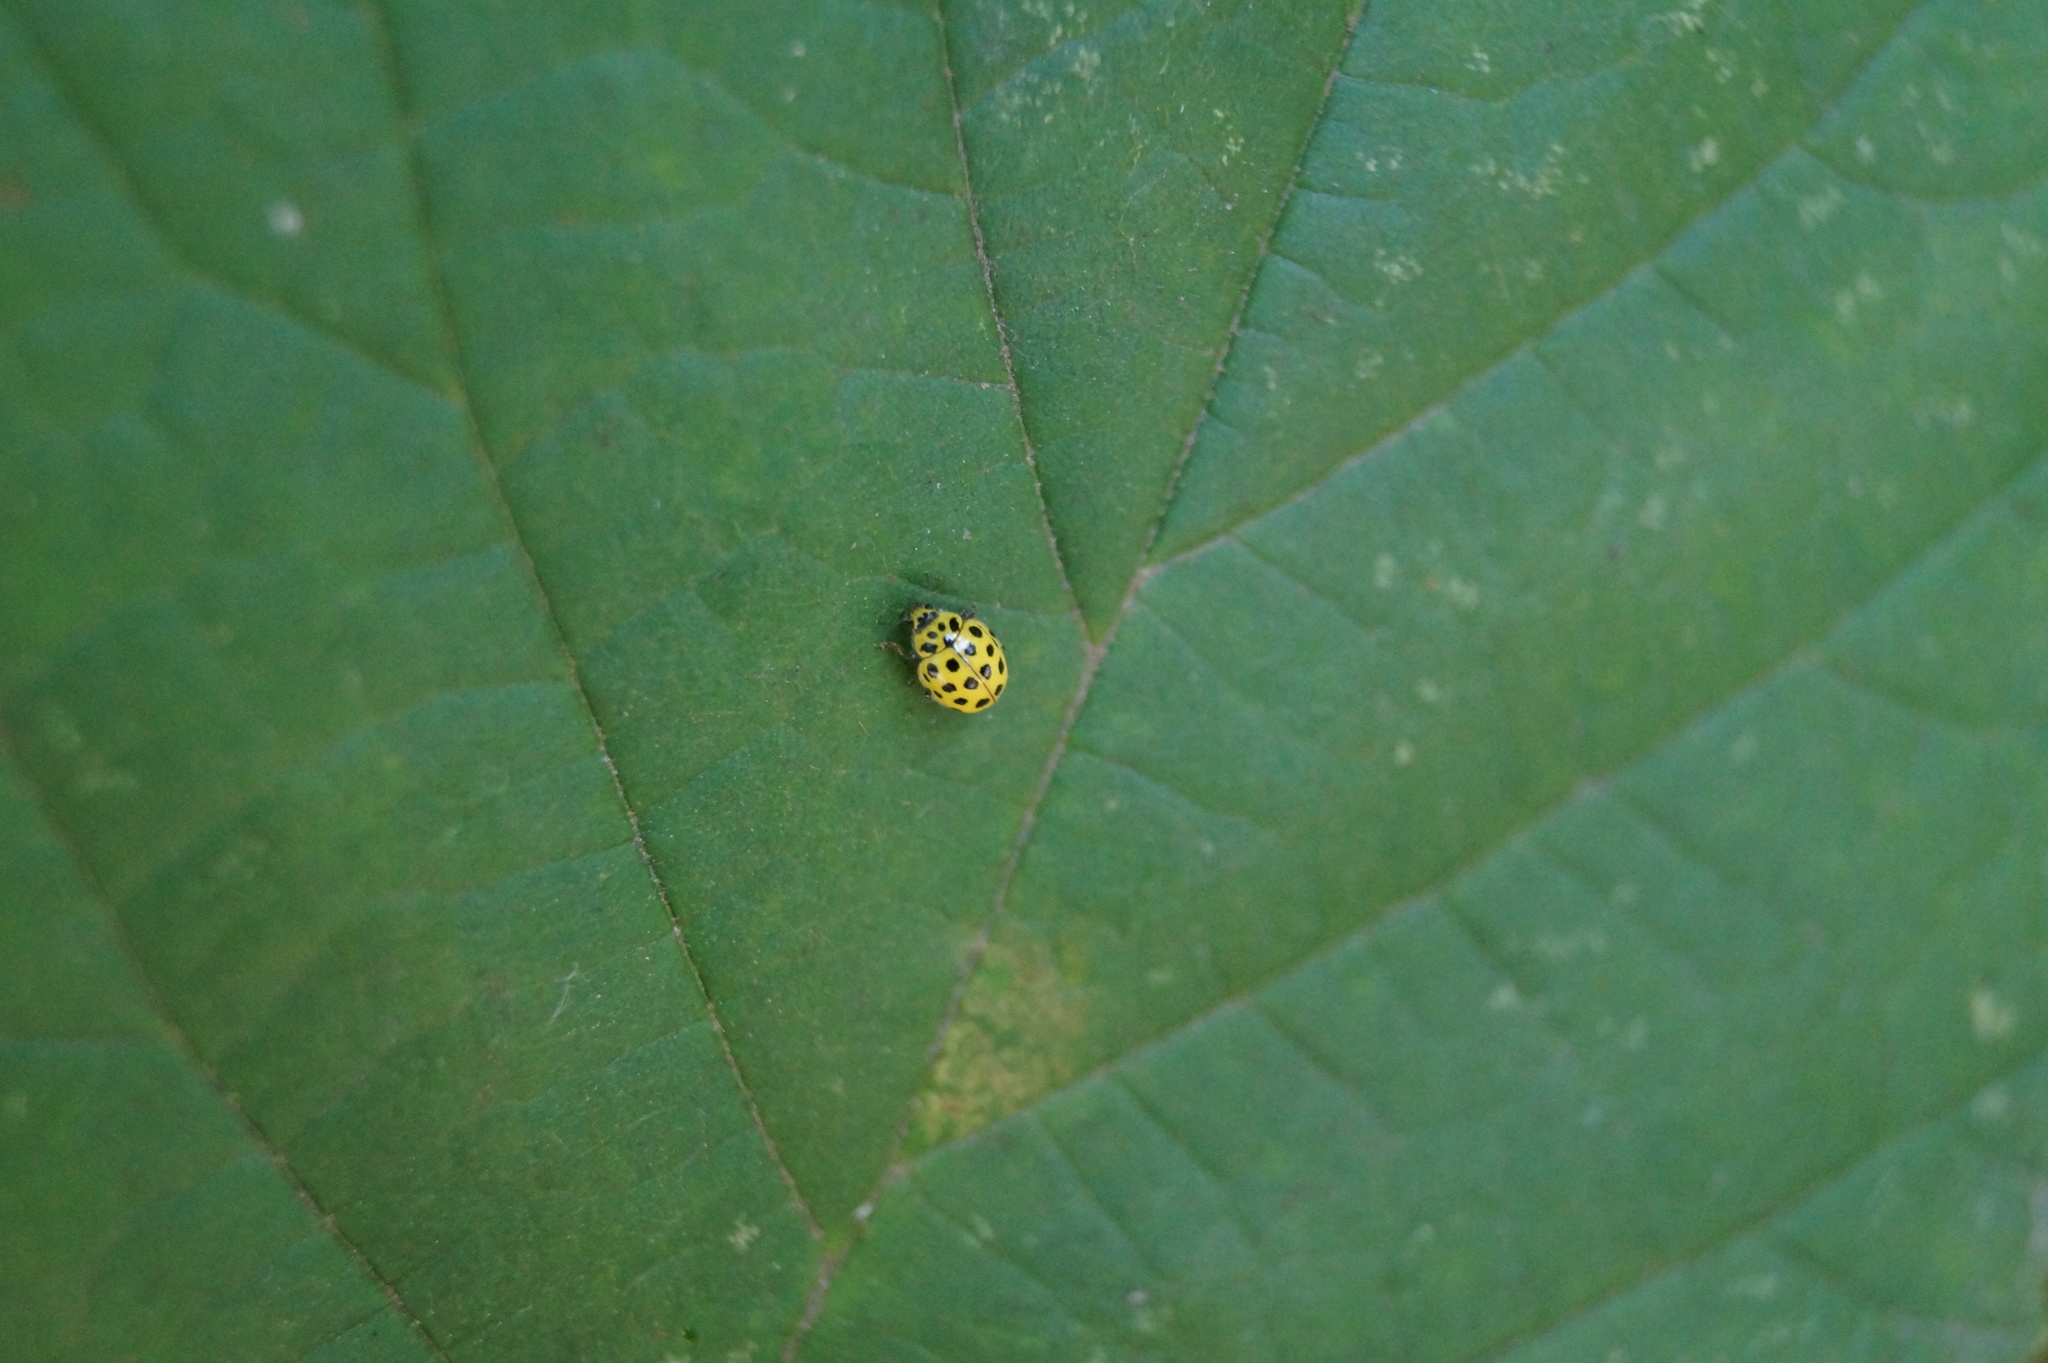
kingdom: Animalia
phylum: Arthropoda
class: Insecta
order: Coleoptera
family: Coccinellidae
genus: Psyllobora
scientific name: Psyllobora vigintiduopunctata
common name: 22-spot ladybird
